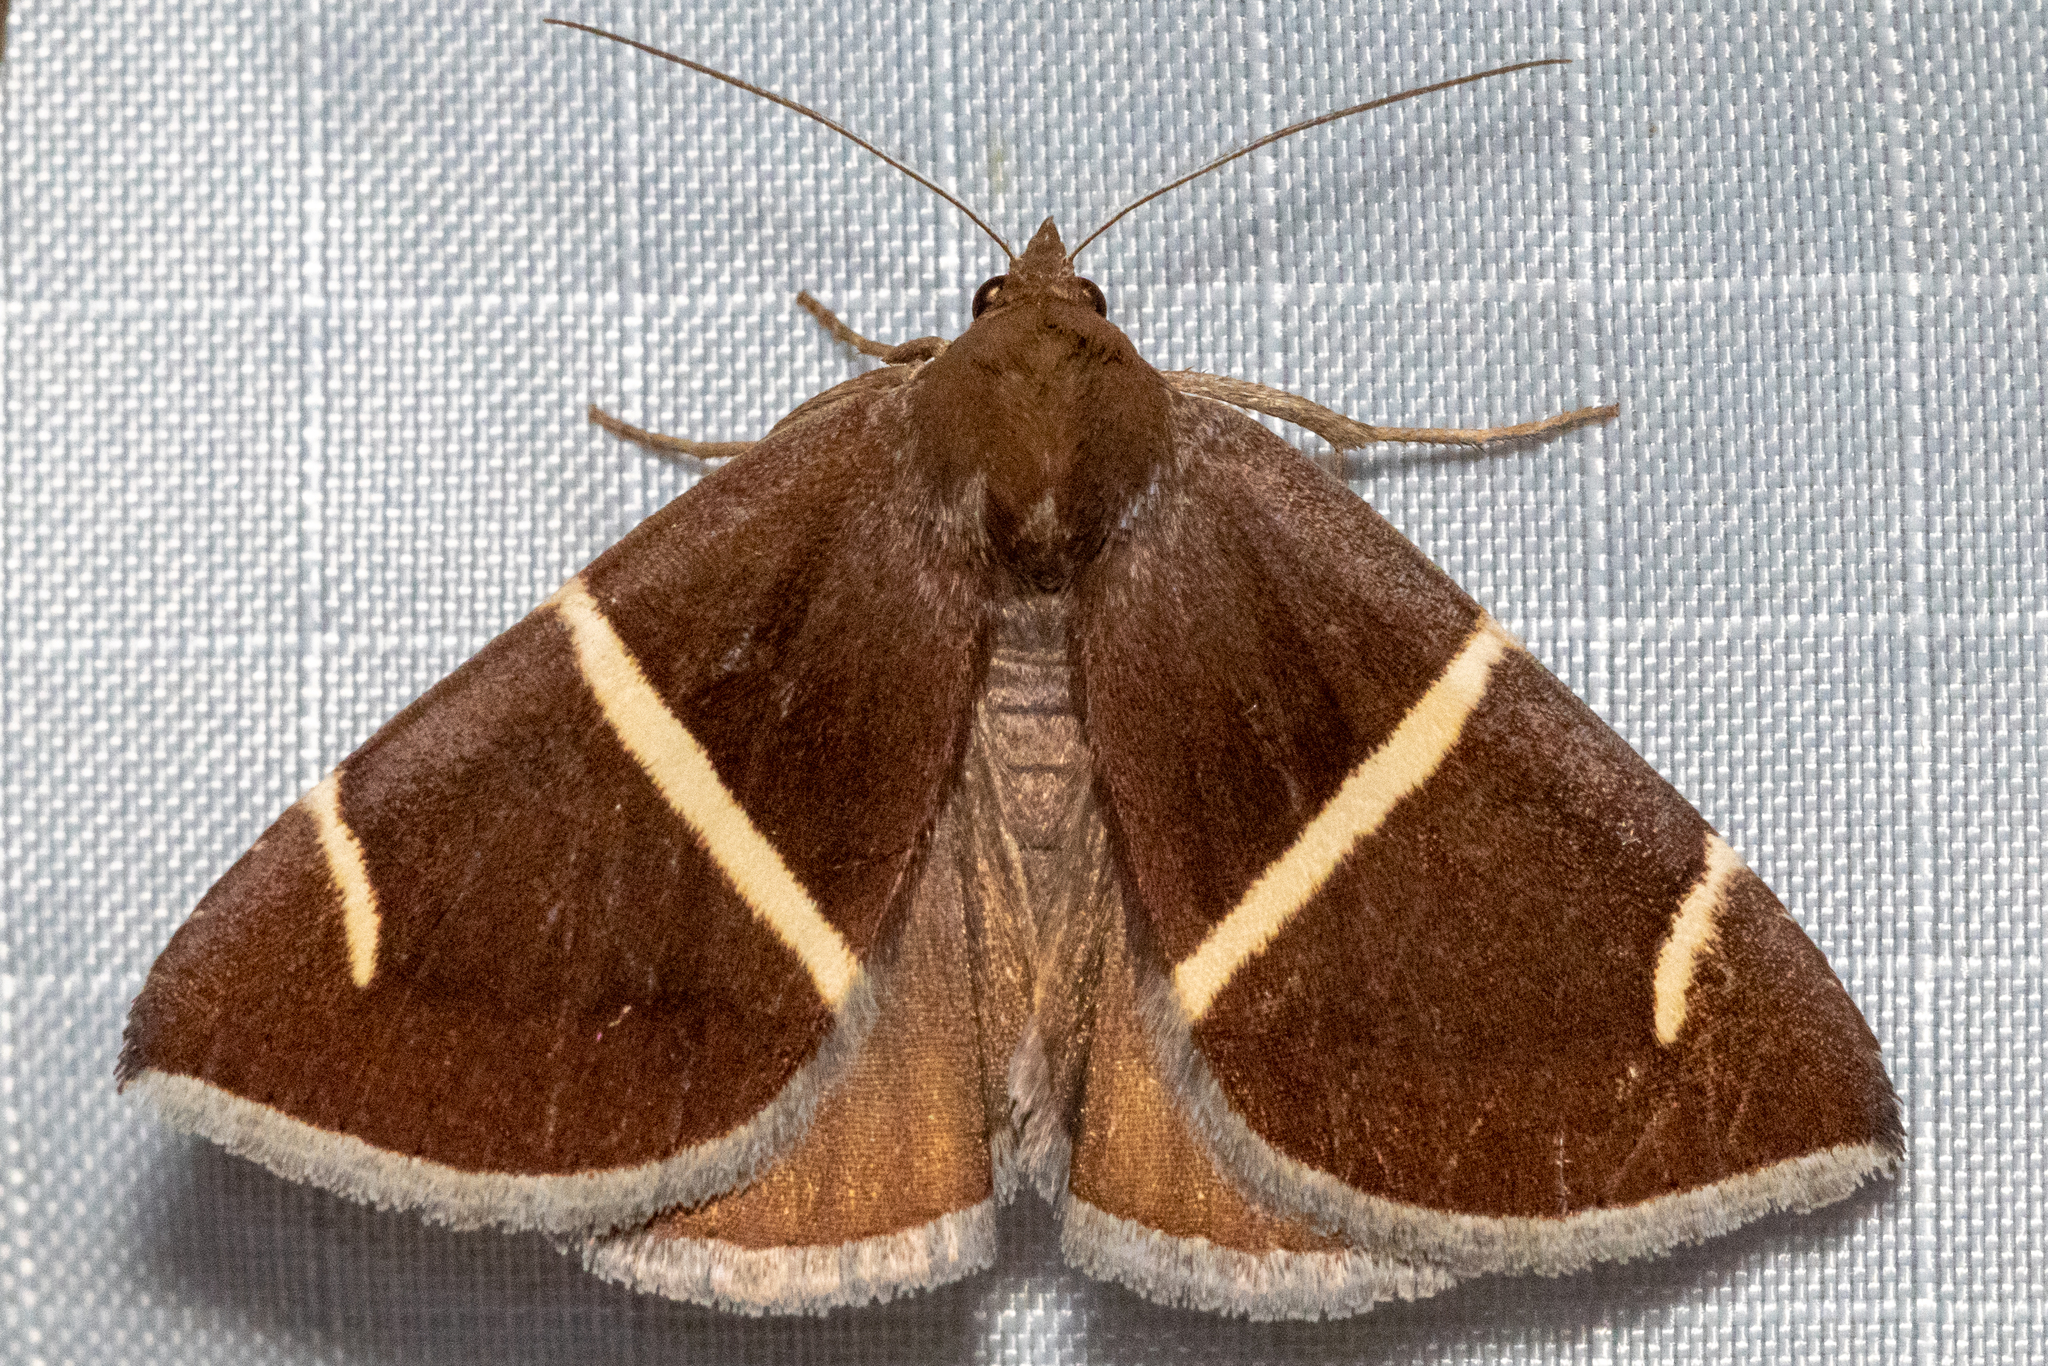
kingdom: Animalia
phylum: Arthropoda
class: Insecta
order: Lepidoptera
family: Erebidae
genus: Argyrostrotis
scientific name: Argyrostrotis anilis
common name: Short-lined chocolate
